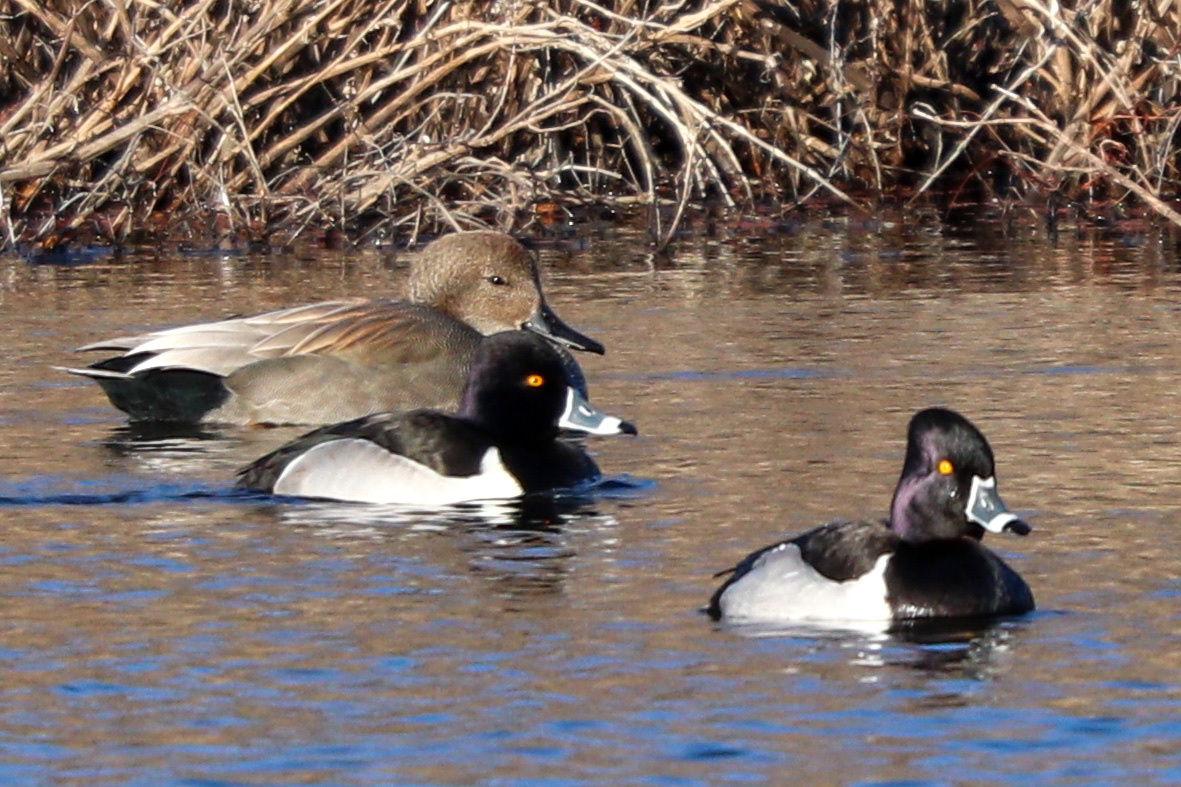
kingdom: Animalia
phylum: Chordata
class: Aves
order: Anseriformes
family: Anatidae
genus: Aythya
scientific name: Aythya collaris
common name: Ring-necked duck
